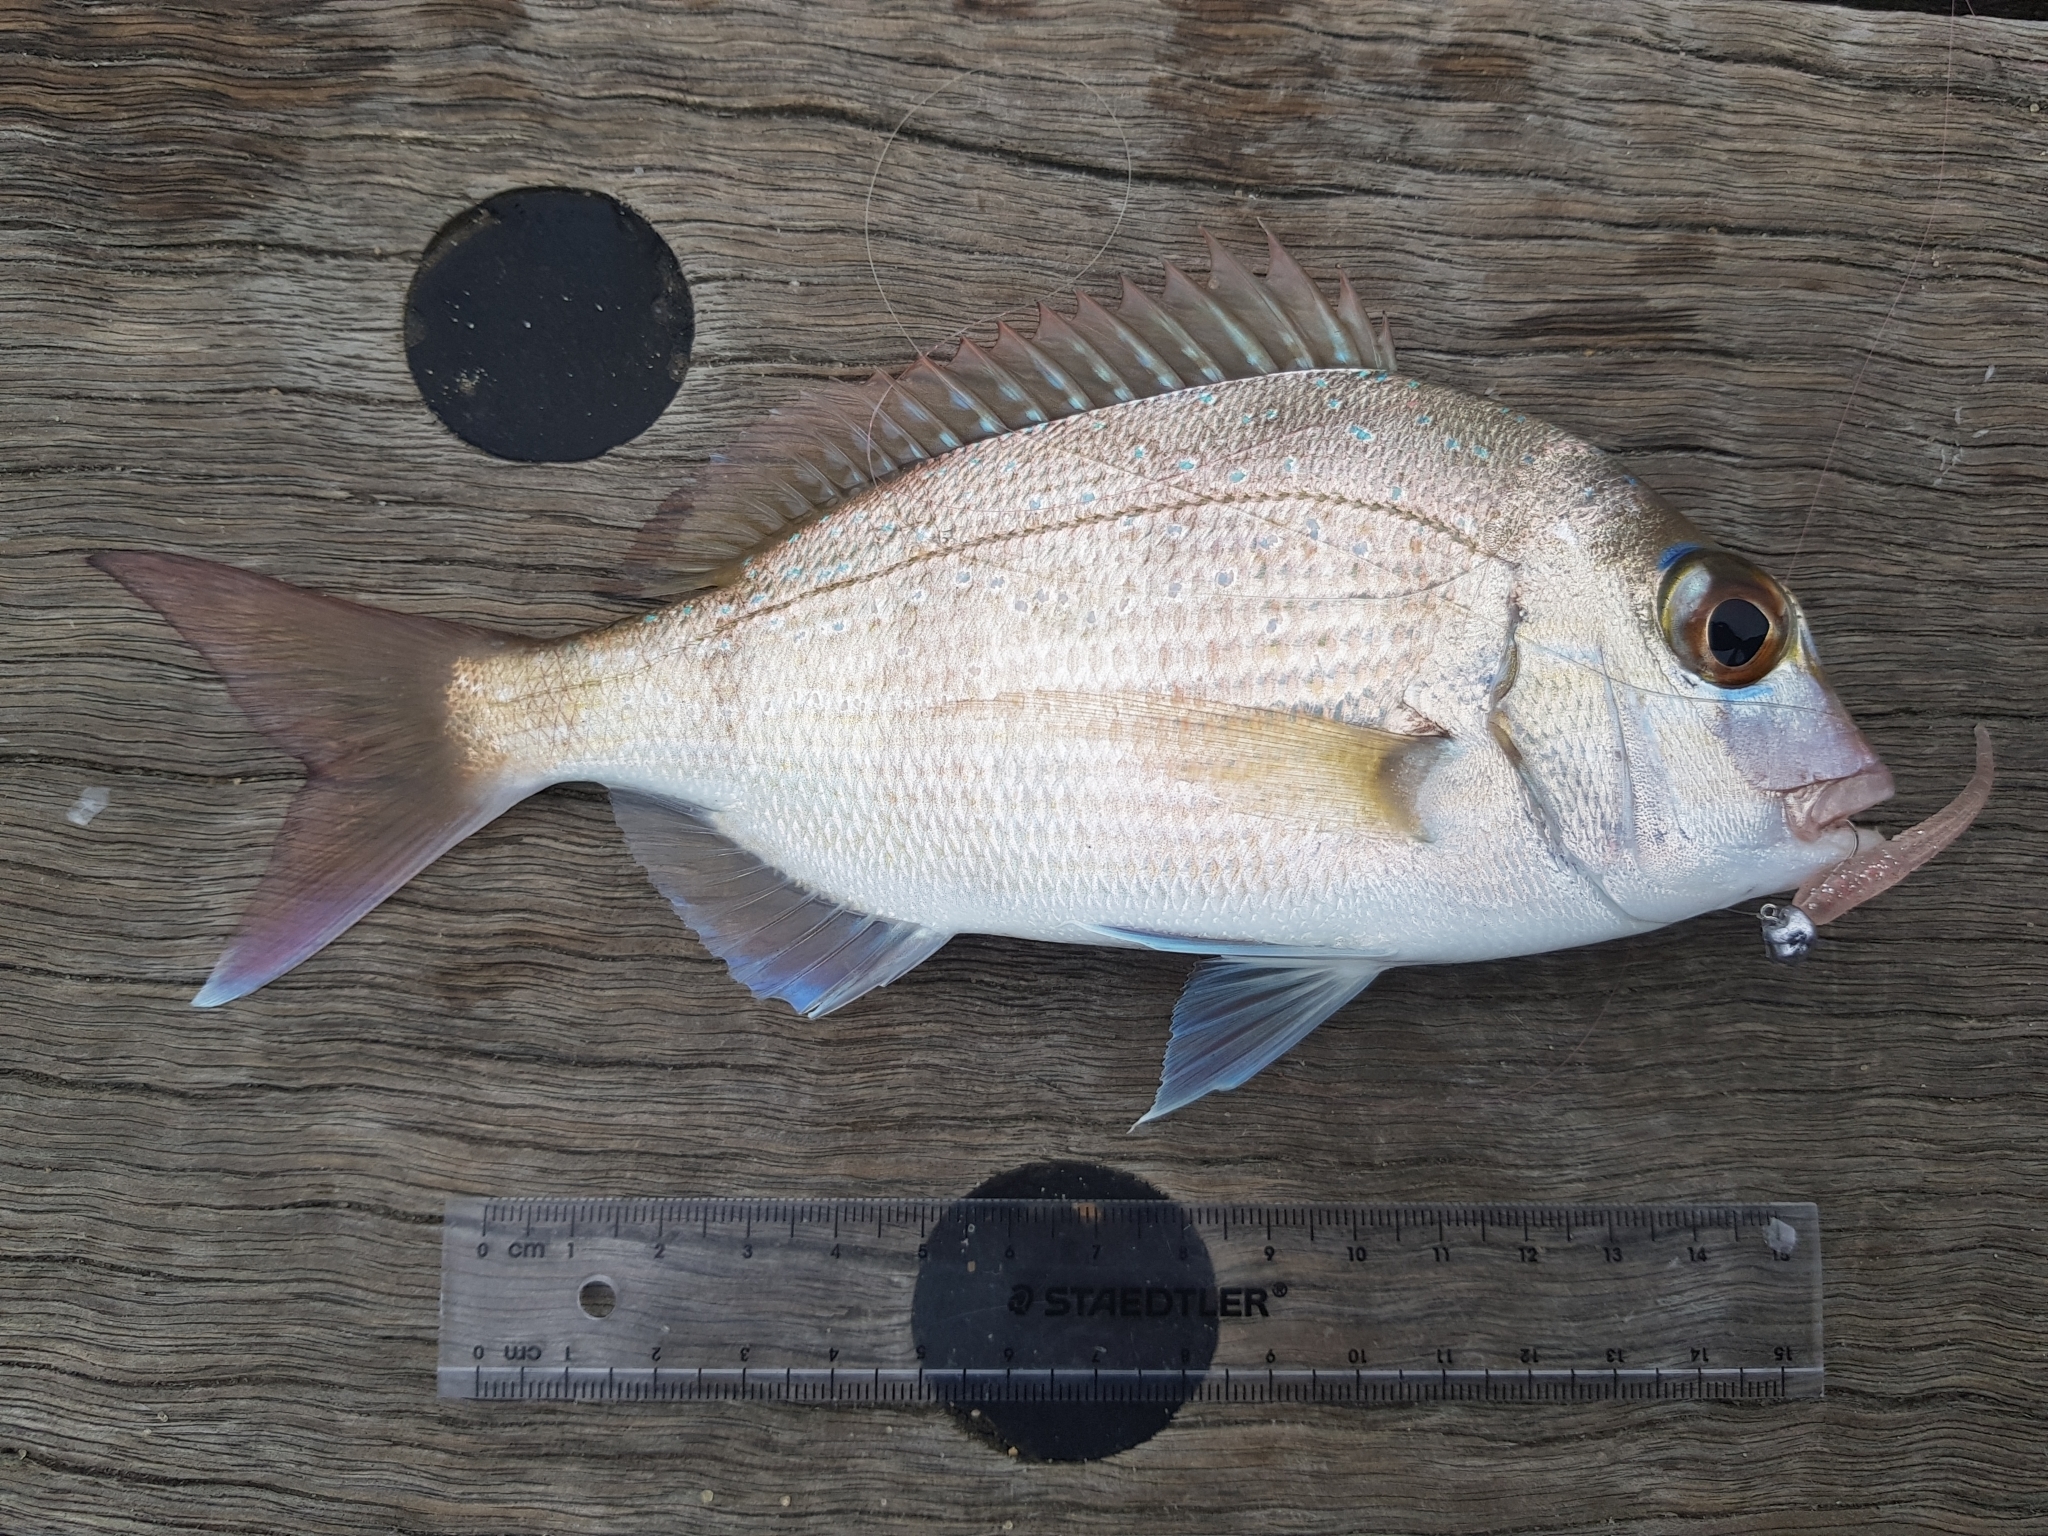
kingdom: Animalia
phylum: Chordata
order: Perciformes
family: Sparidae
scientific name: Sparidae
